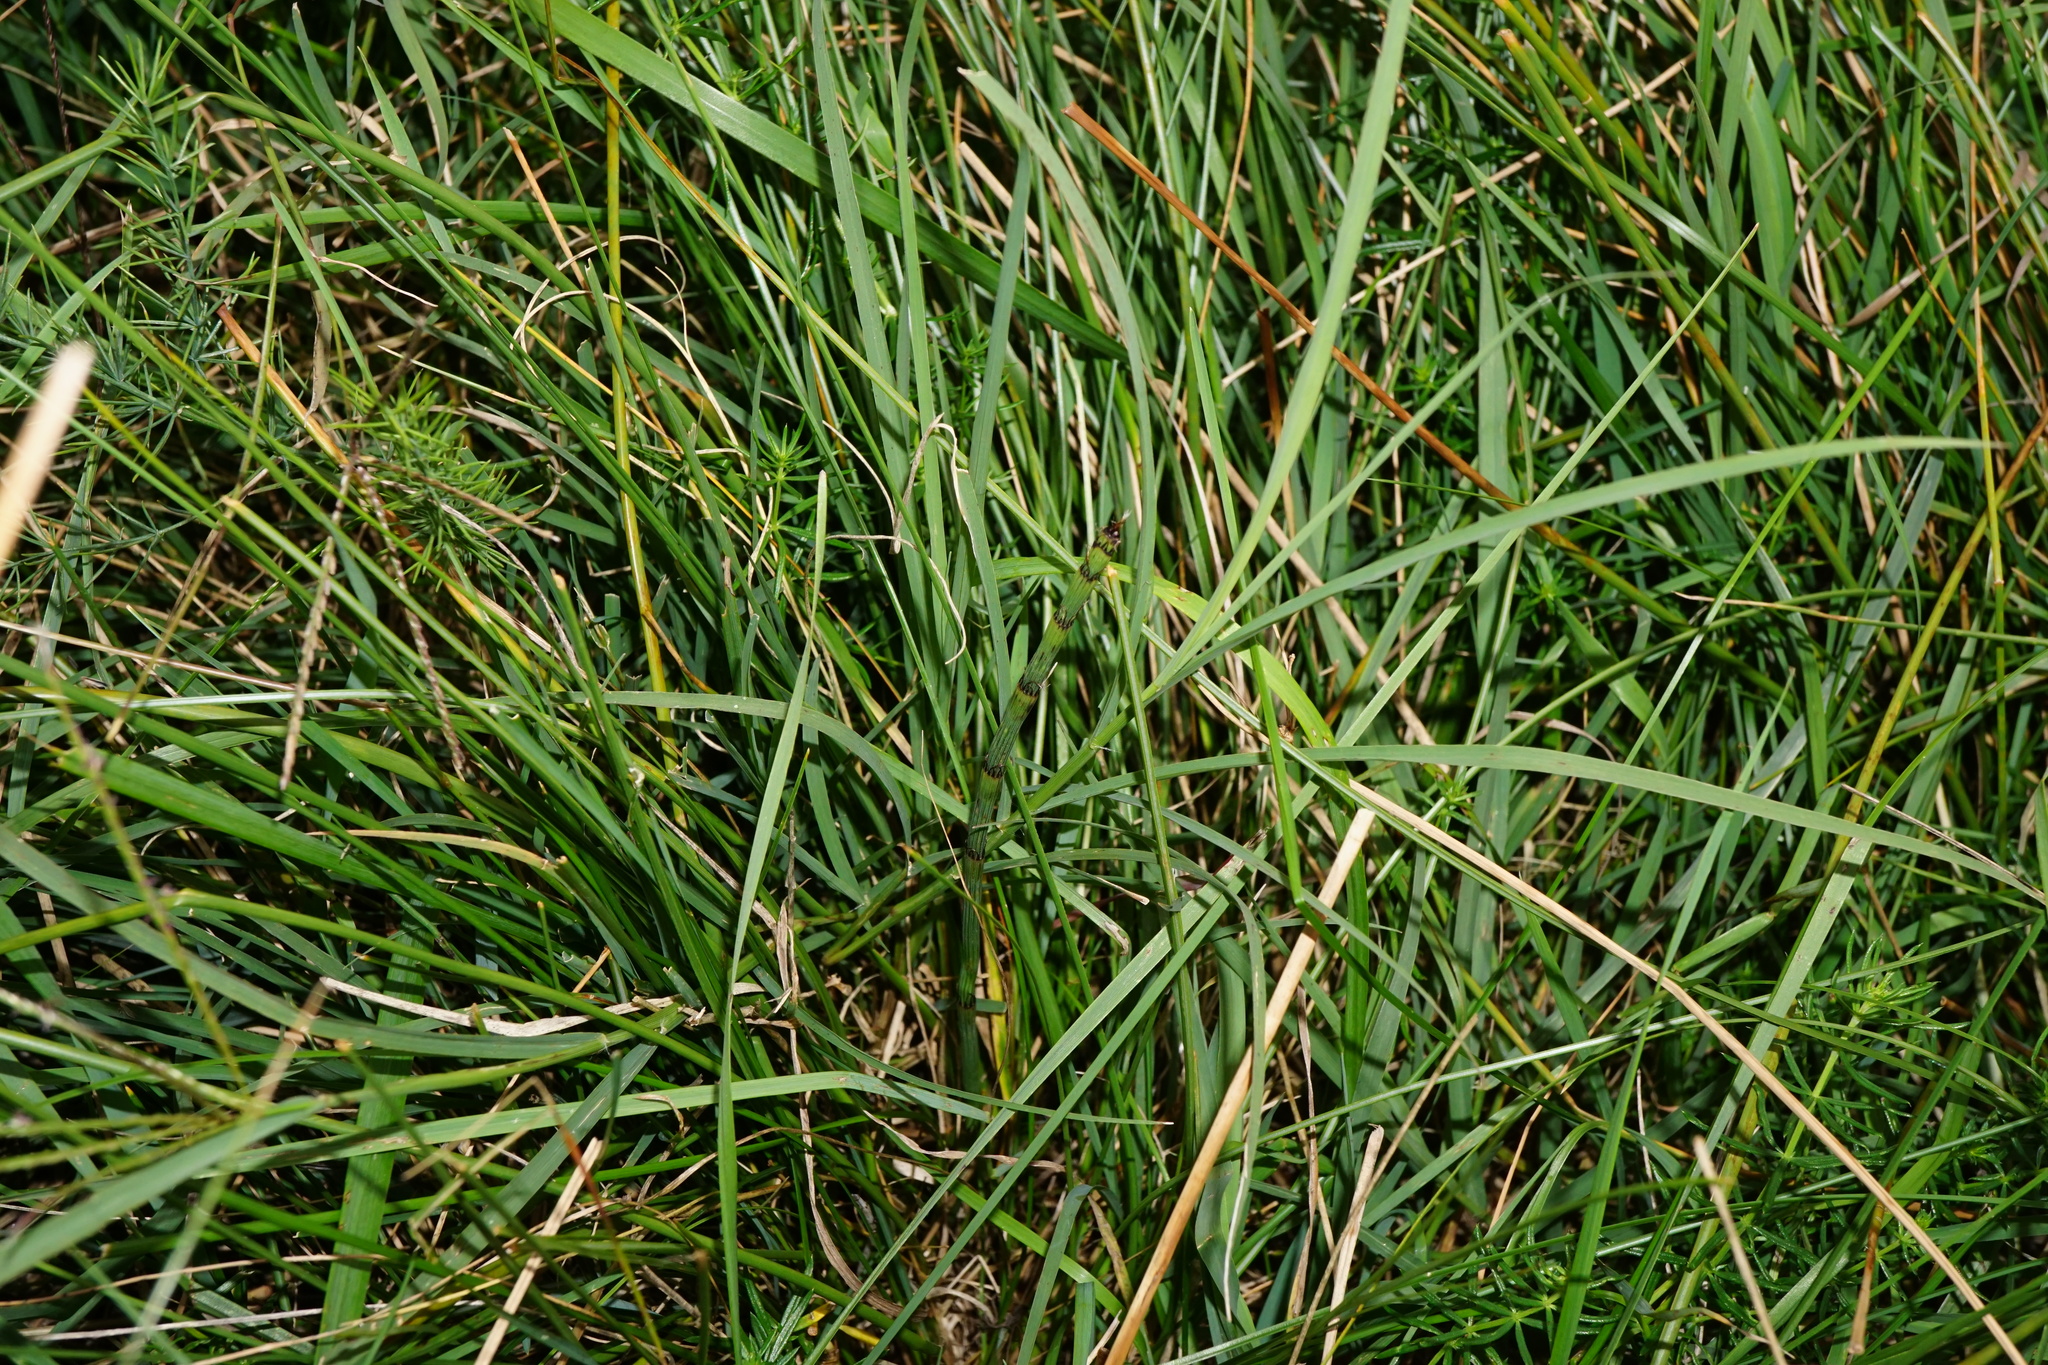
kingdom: Plantae
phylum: Tracheophyta
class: Polypodiopsida
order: Equisetales
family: Equisetaceae
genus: Equisetum
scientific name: Equisetum ramosissimum
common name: Branched horsetail
